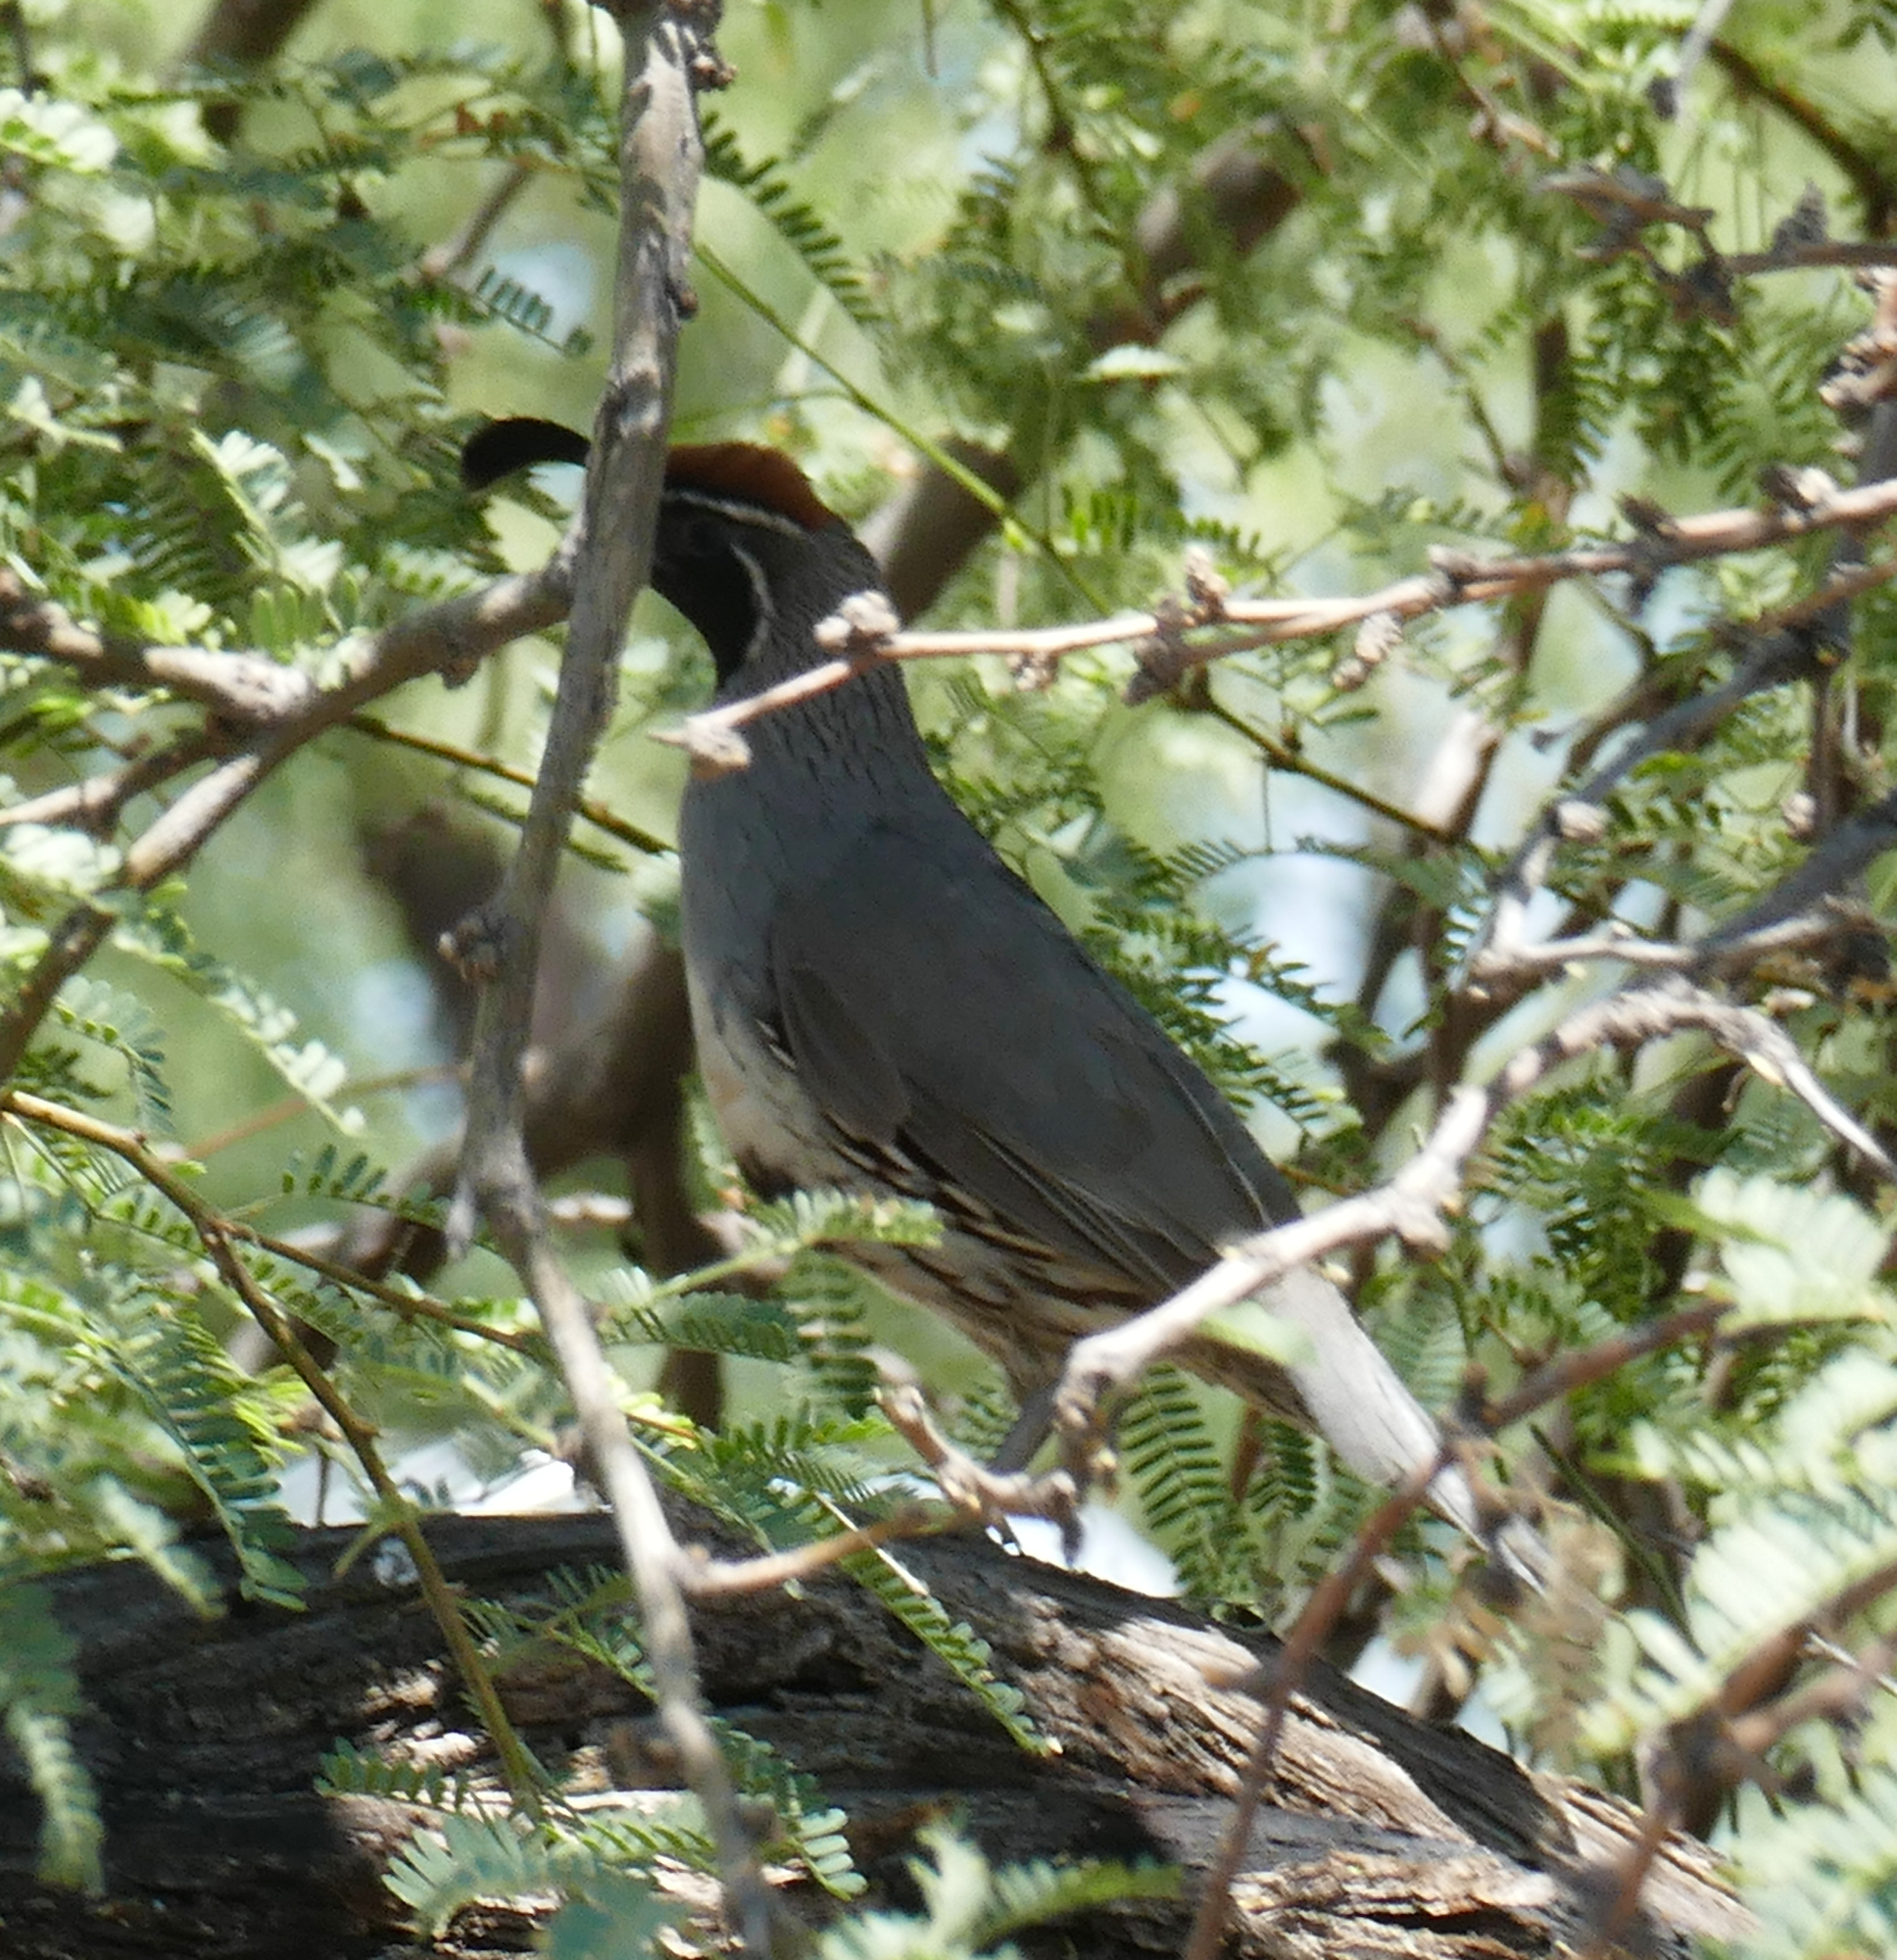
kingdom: Animalia
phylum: Chordata
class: Aves
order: Galliformes
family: Odontophoridae
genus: Callipepla
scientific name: Callipepla gambelii
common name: Gambel's quail
